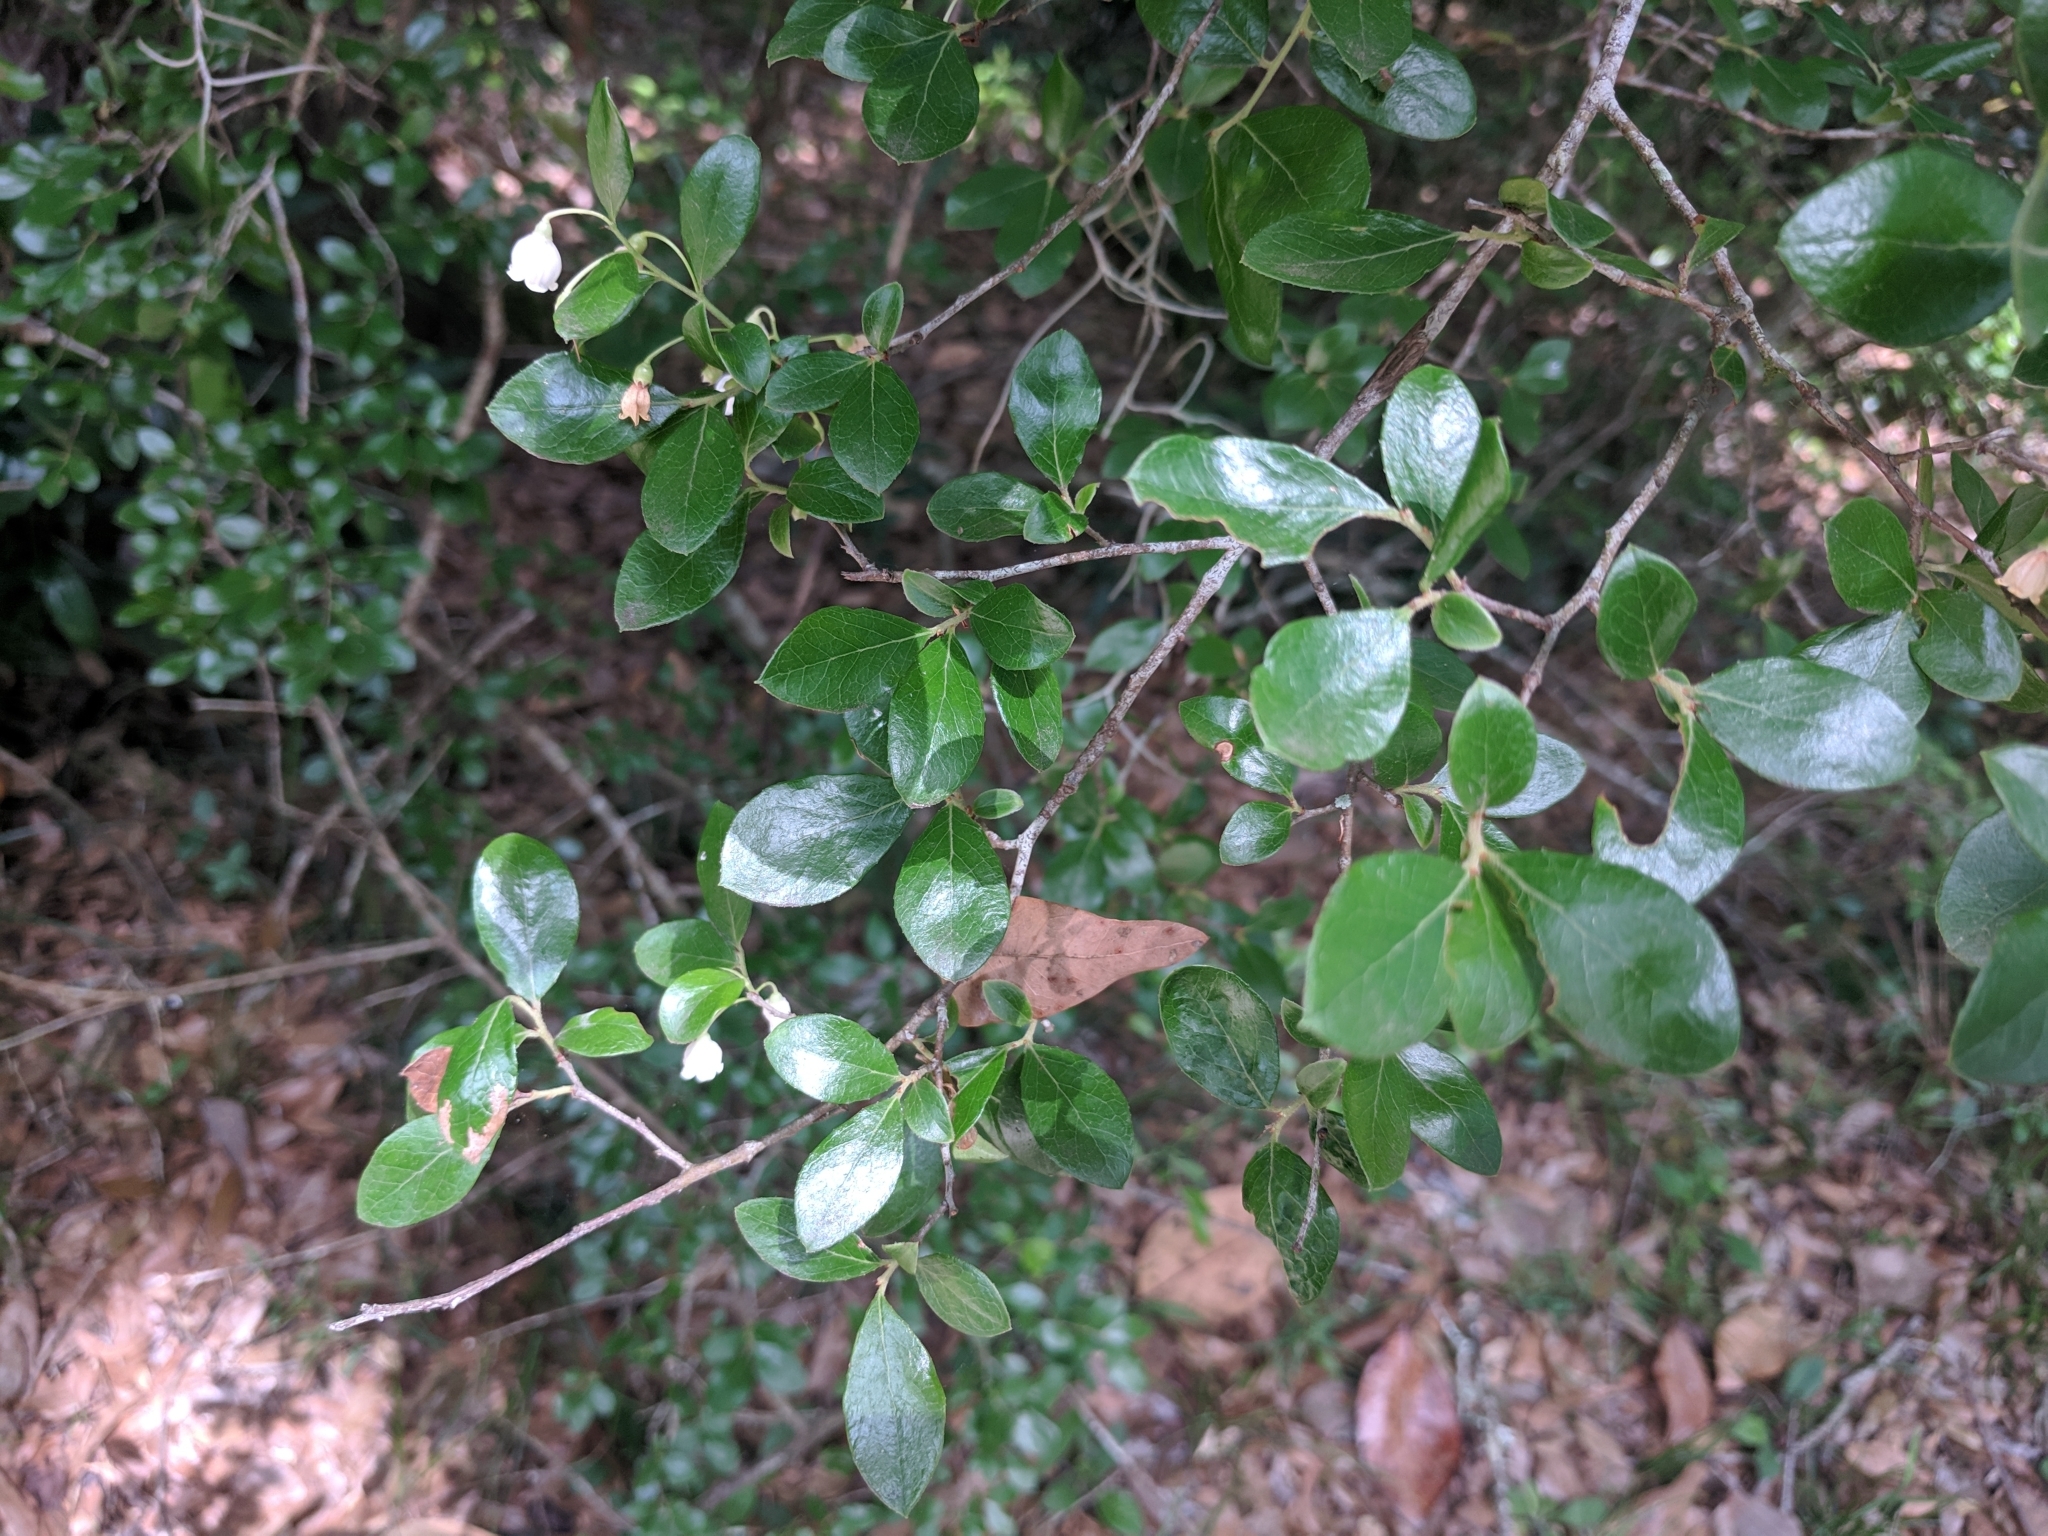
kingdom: Plantae
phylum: Tracheophyta
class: Magnoliopsida
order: Ericales
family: Ericaceae
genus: Vaccinium
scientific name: Vaccinium arboreum
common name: Farkleberry
